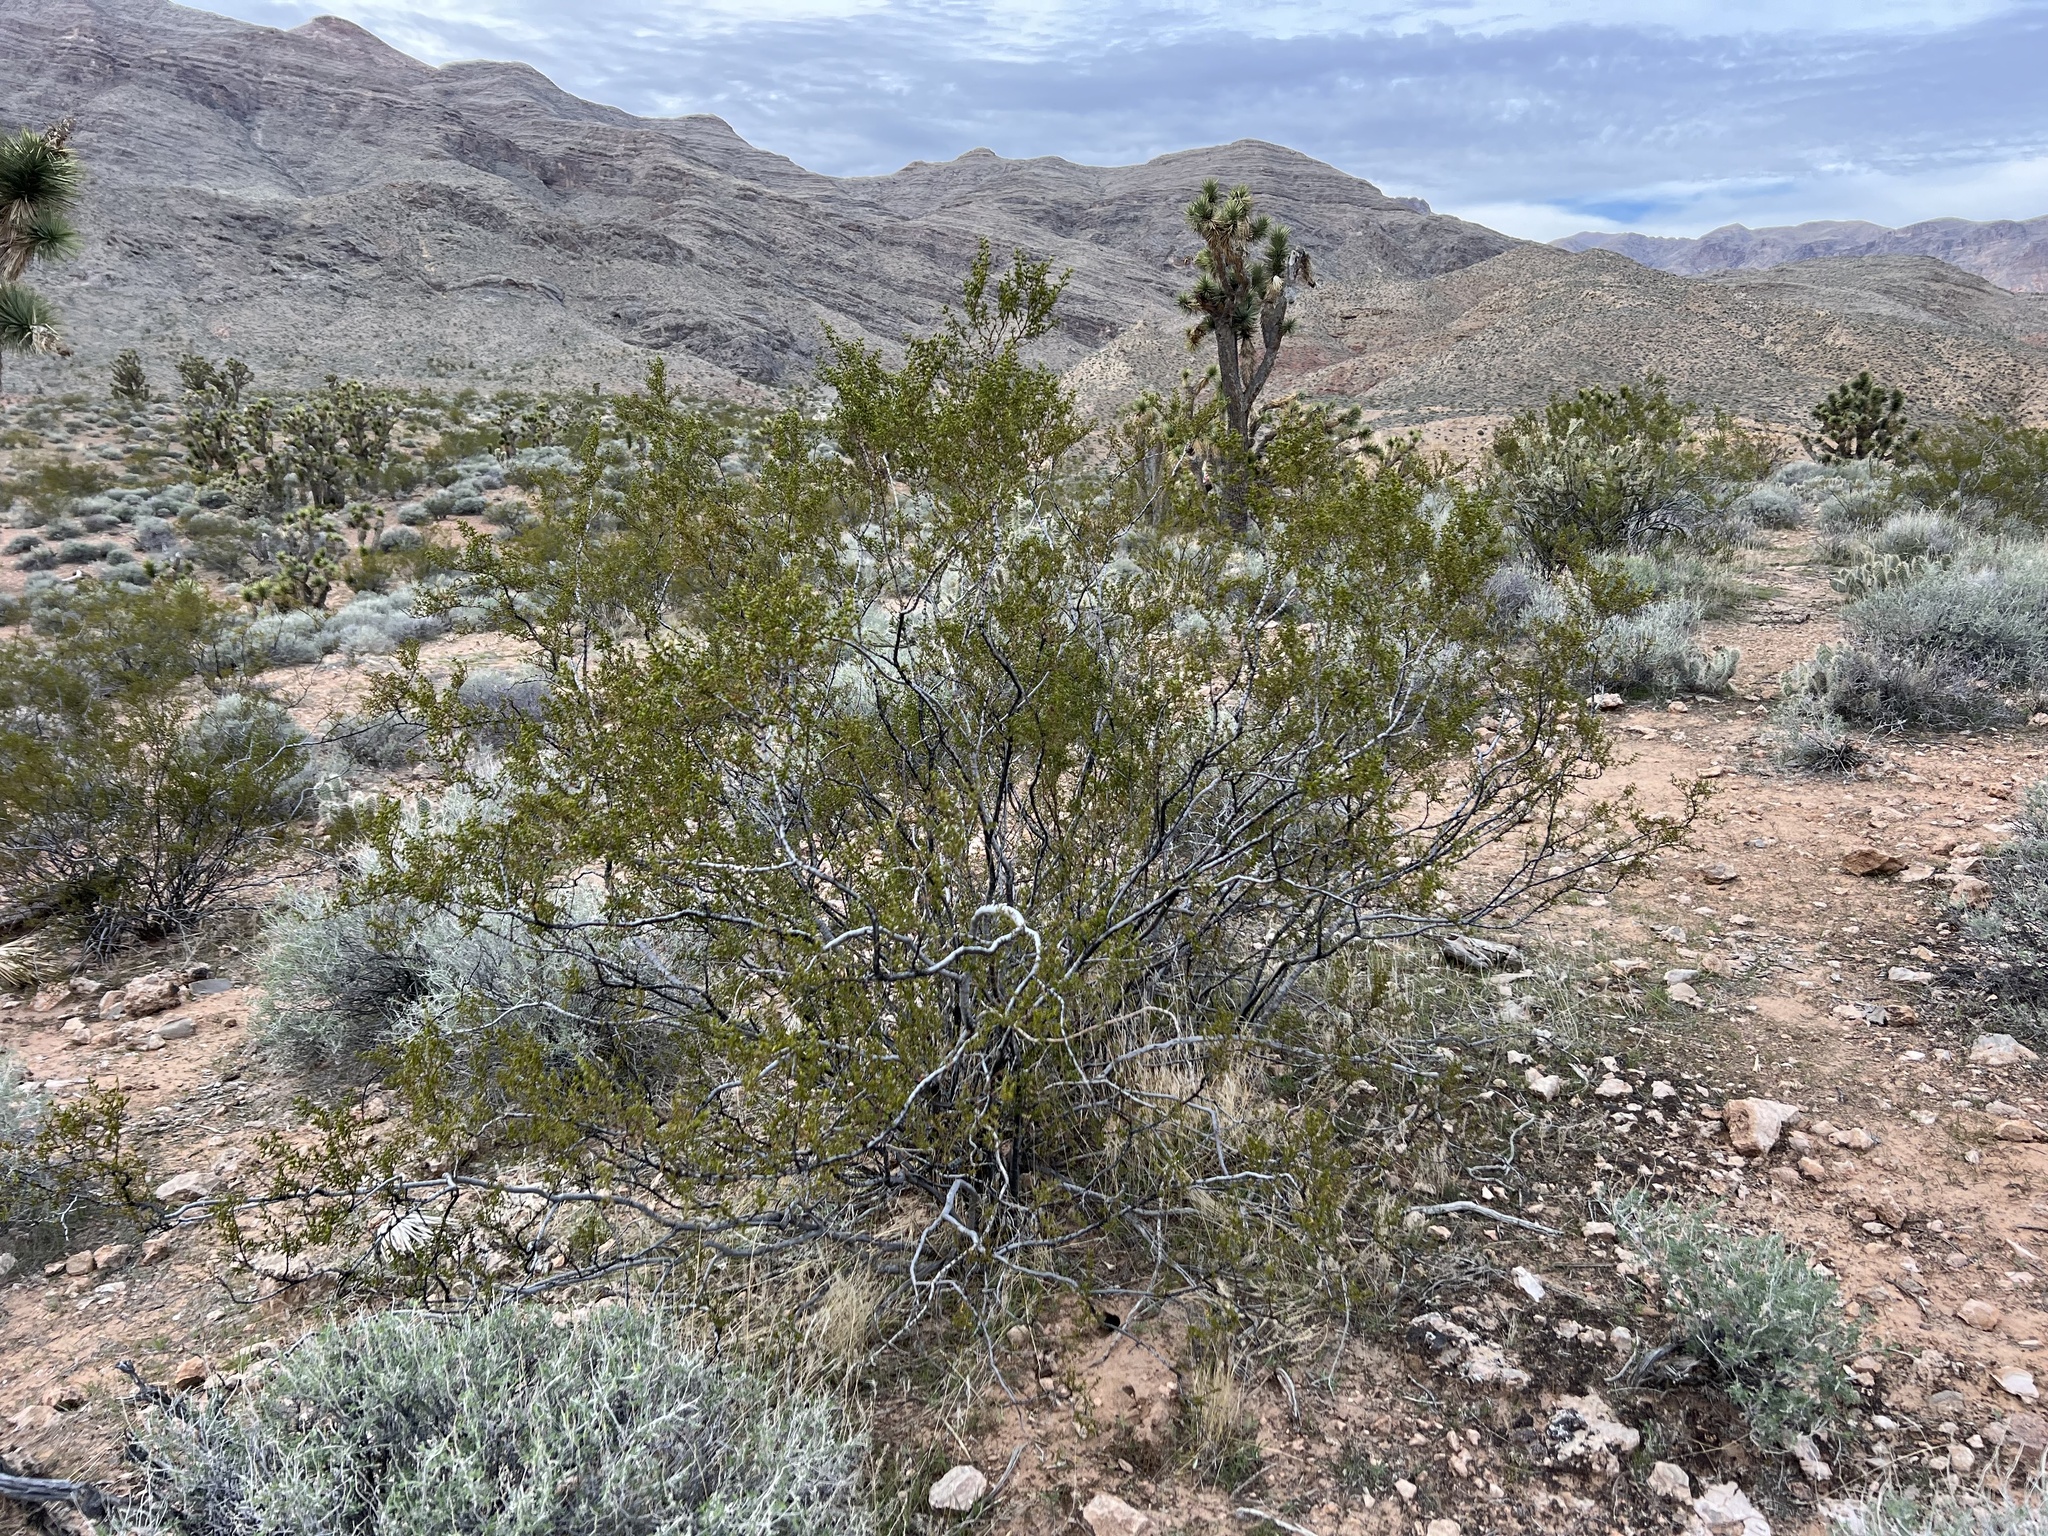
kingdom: Plantae
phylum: Tracheophyta
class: Magnoliopsida
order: Zygophyllales
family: Zygophyllaceae
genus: Larrea
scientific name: Larrea tridentata
